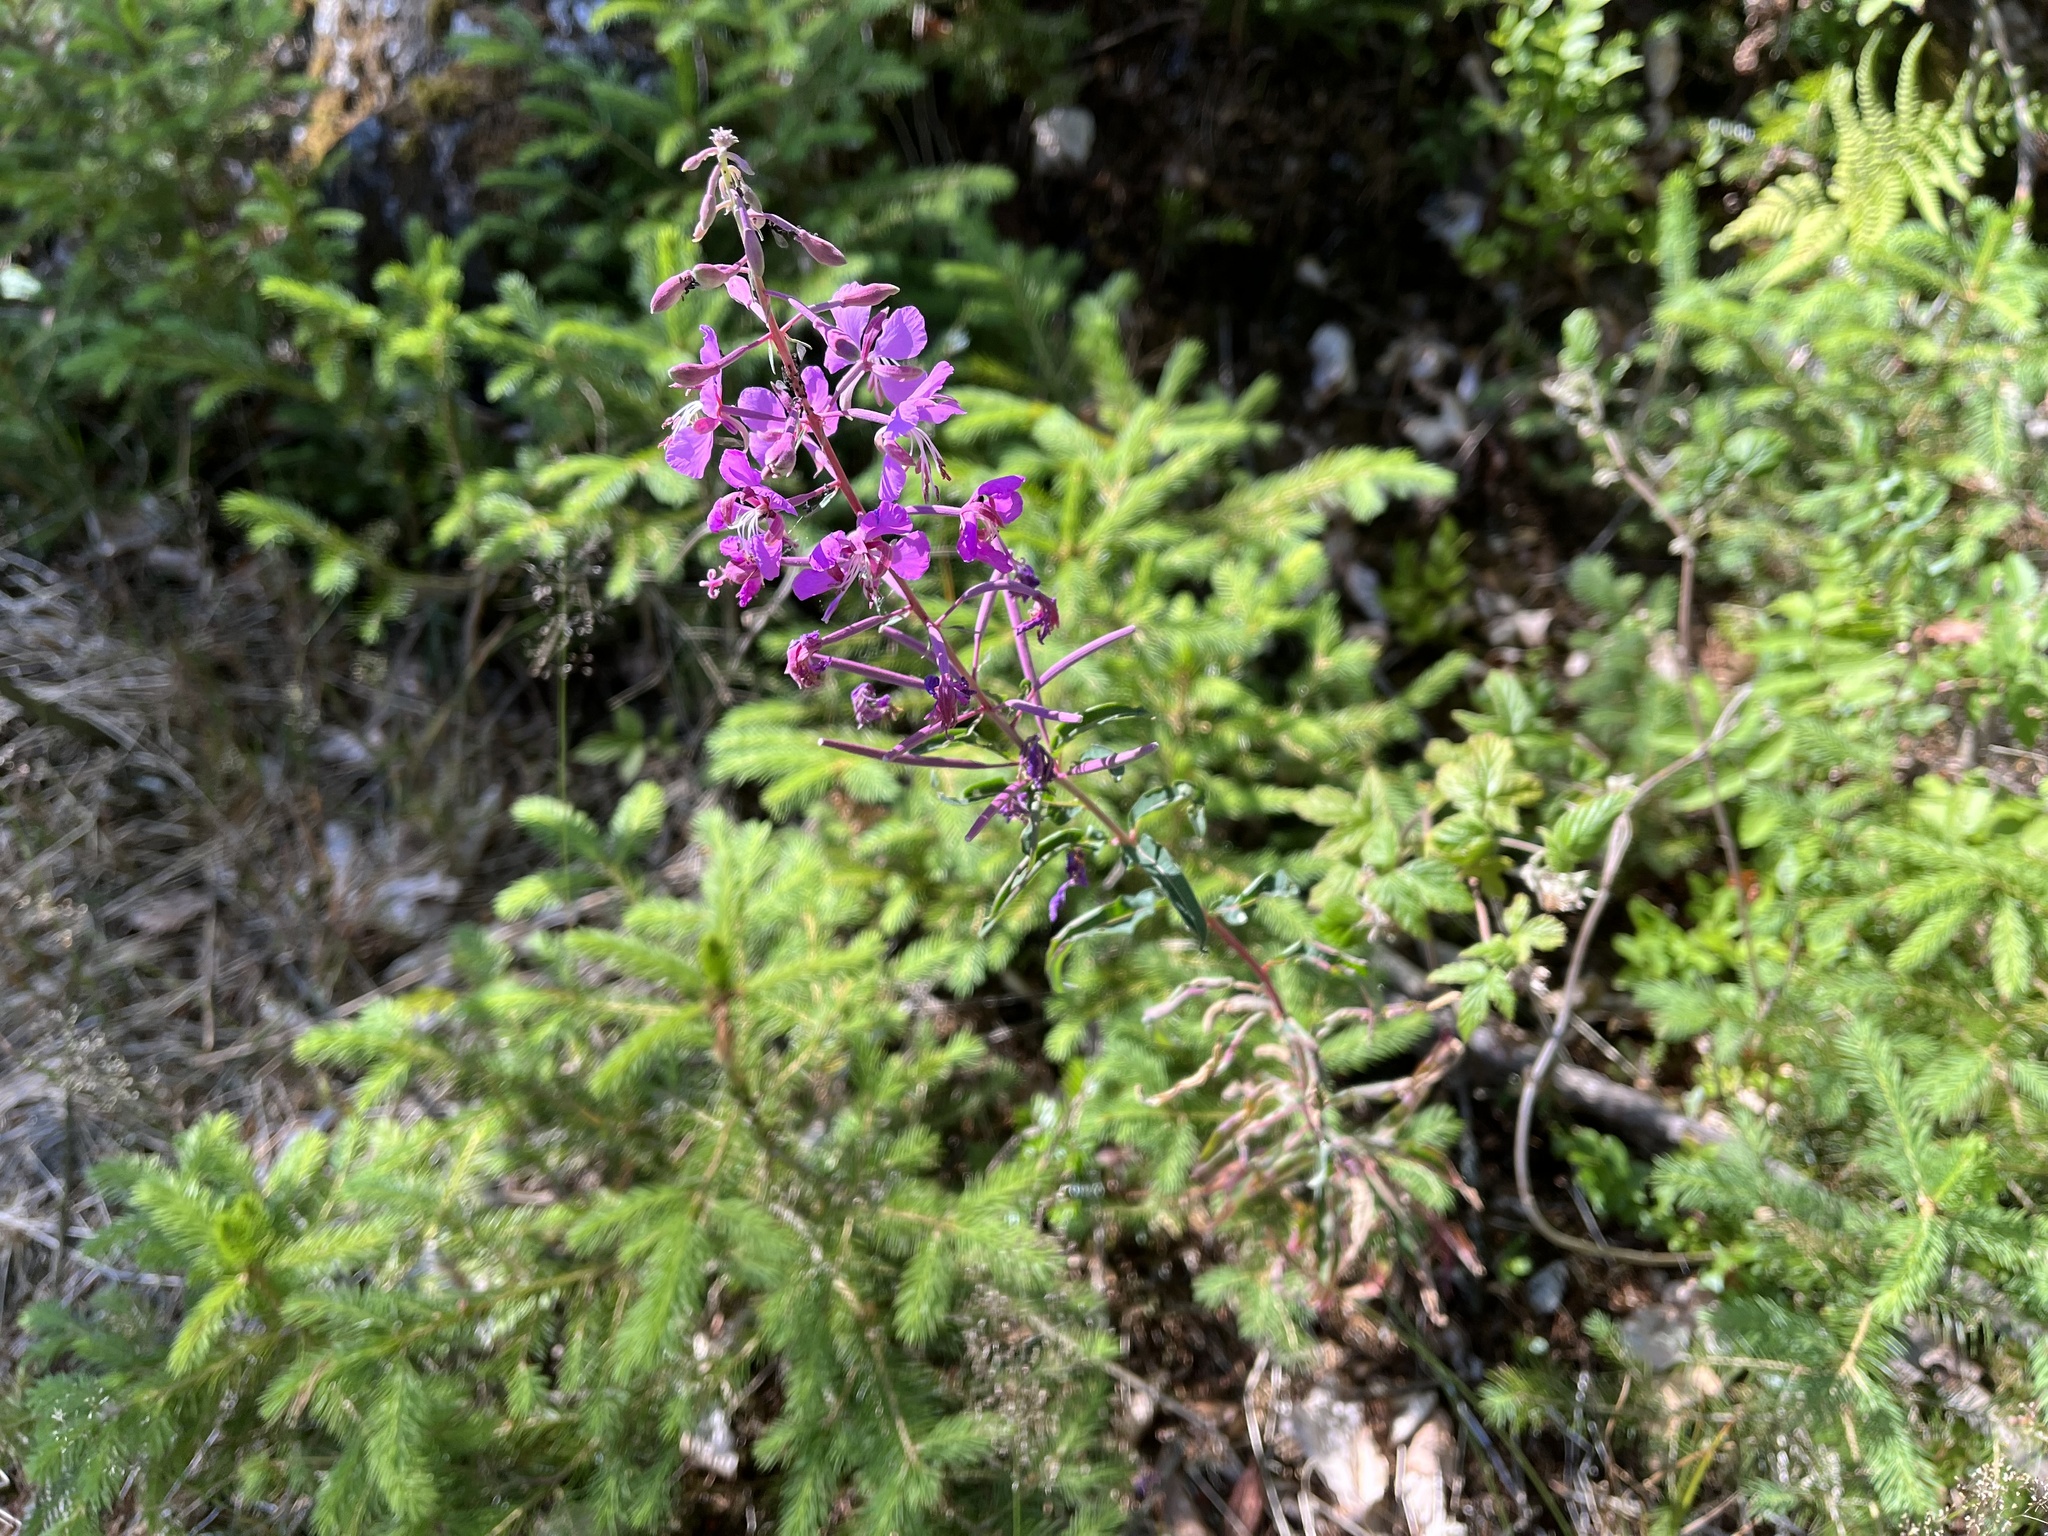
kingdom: Plantae
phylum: Tracheophyta
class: Magnoliopsida
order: Myrtales
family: Onagraceae
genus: Chamaenerion
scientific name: Chamaenerion angustifolium
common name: Fireweed
